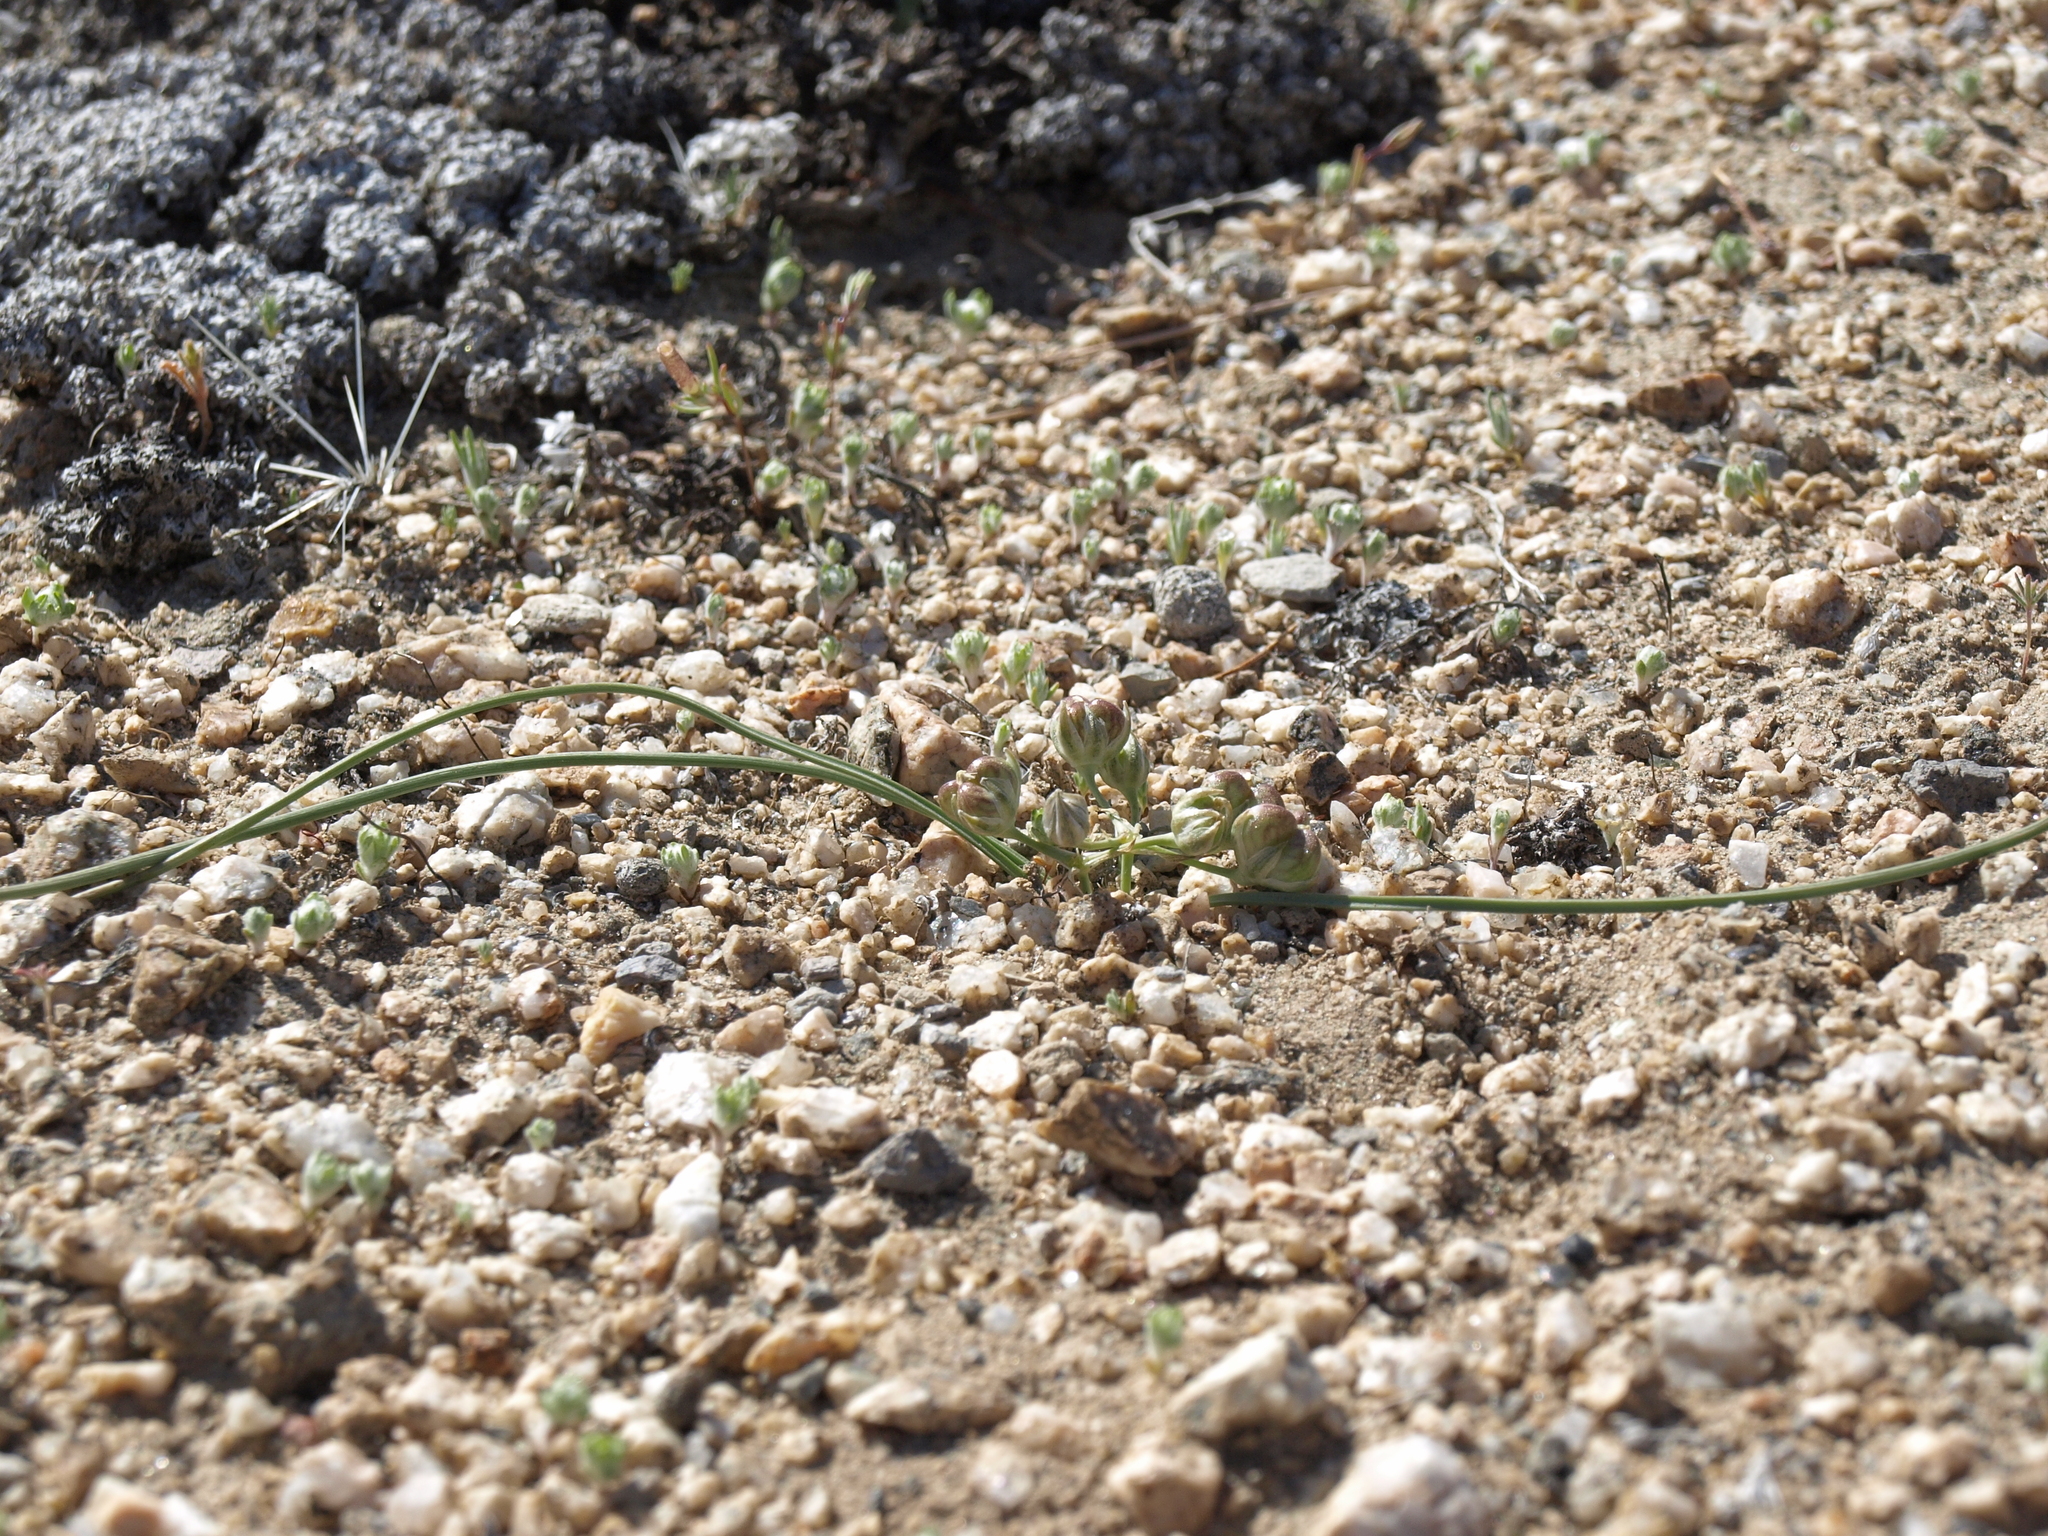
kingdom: Plantae
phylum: Tracheophyta
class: Liliopsida
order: Asparagales
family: Asparagaceae
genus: Muilla
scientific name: Muilla coronata
